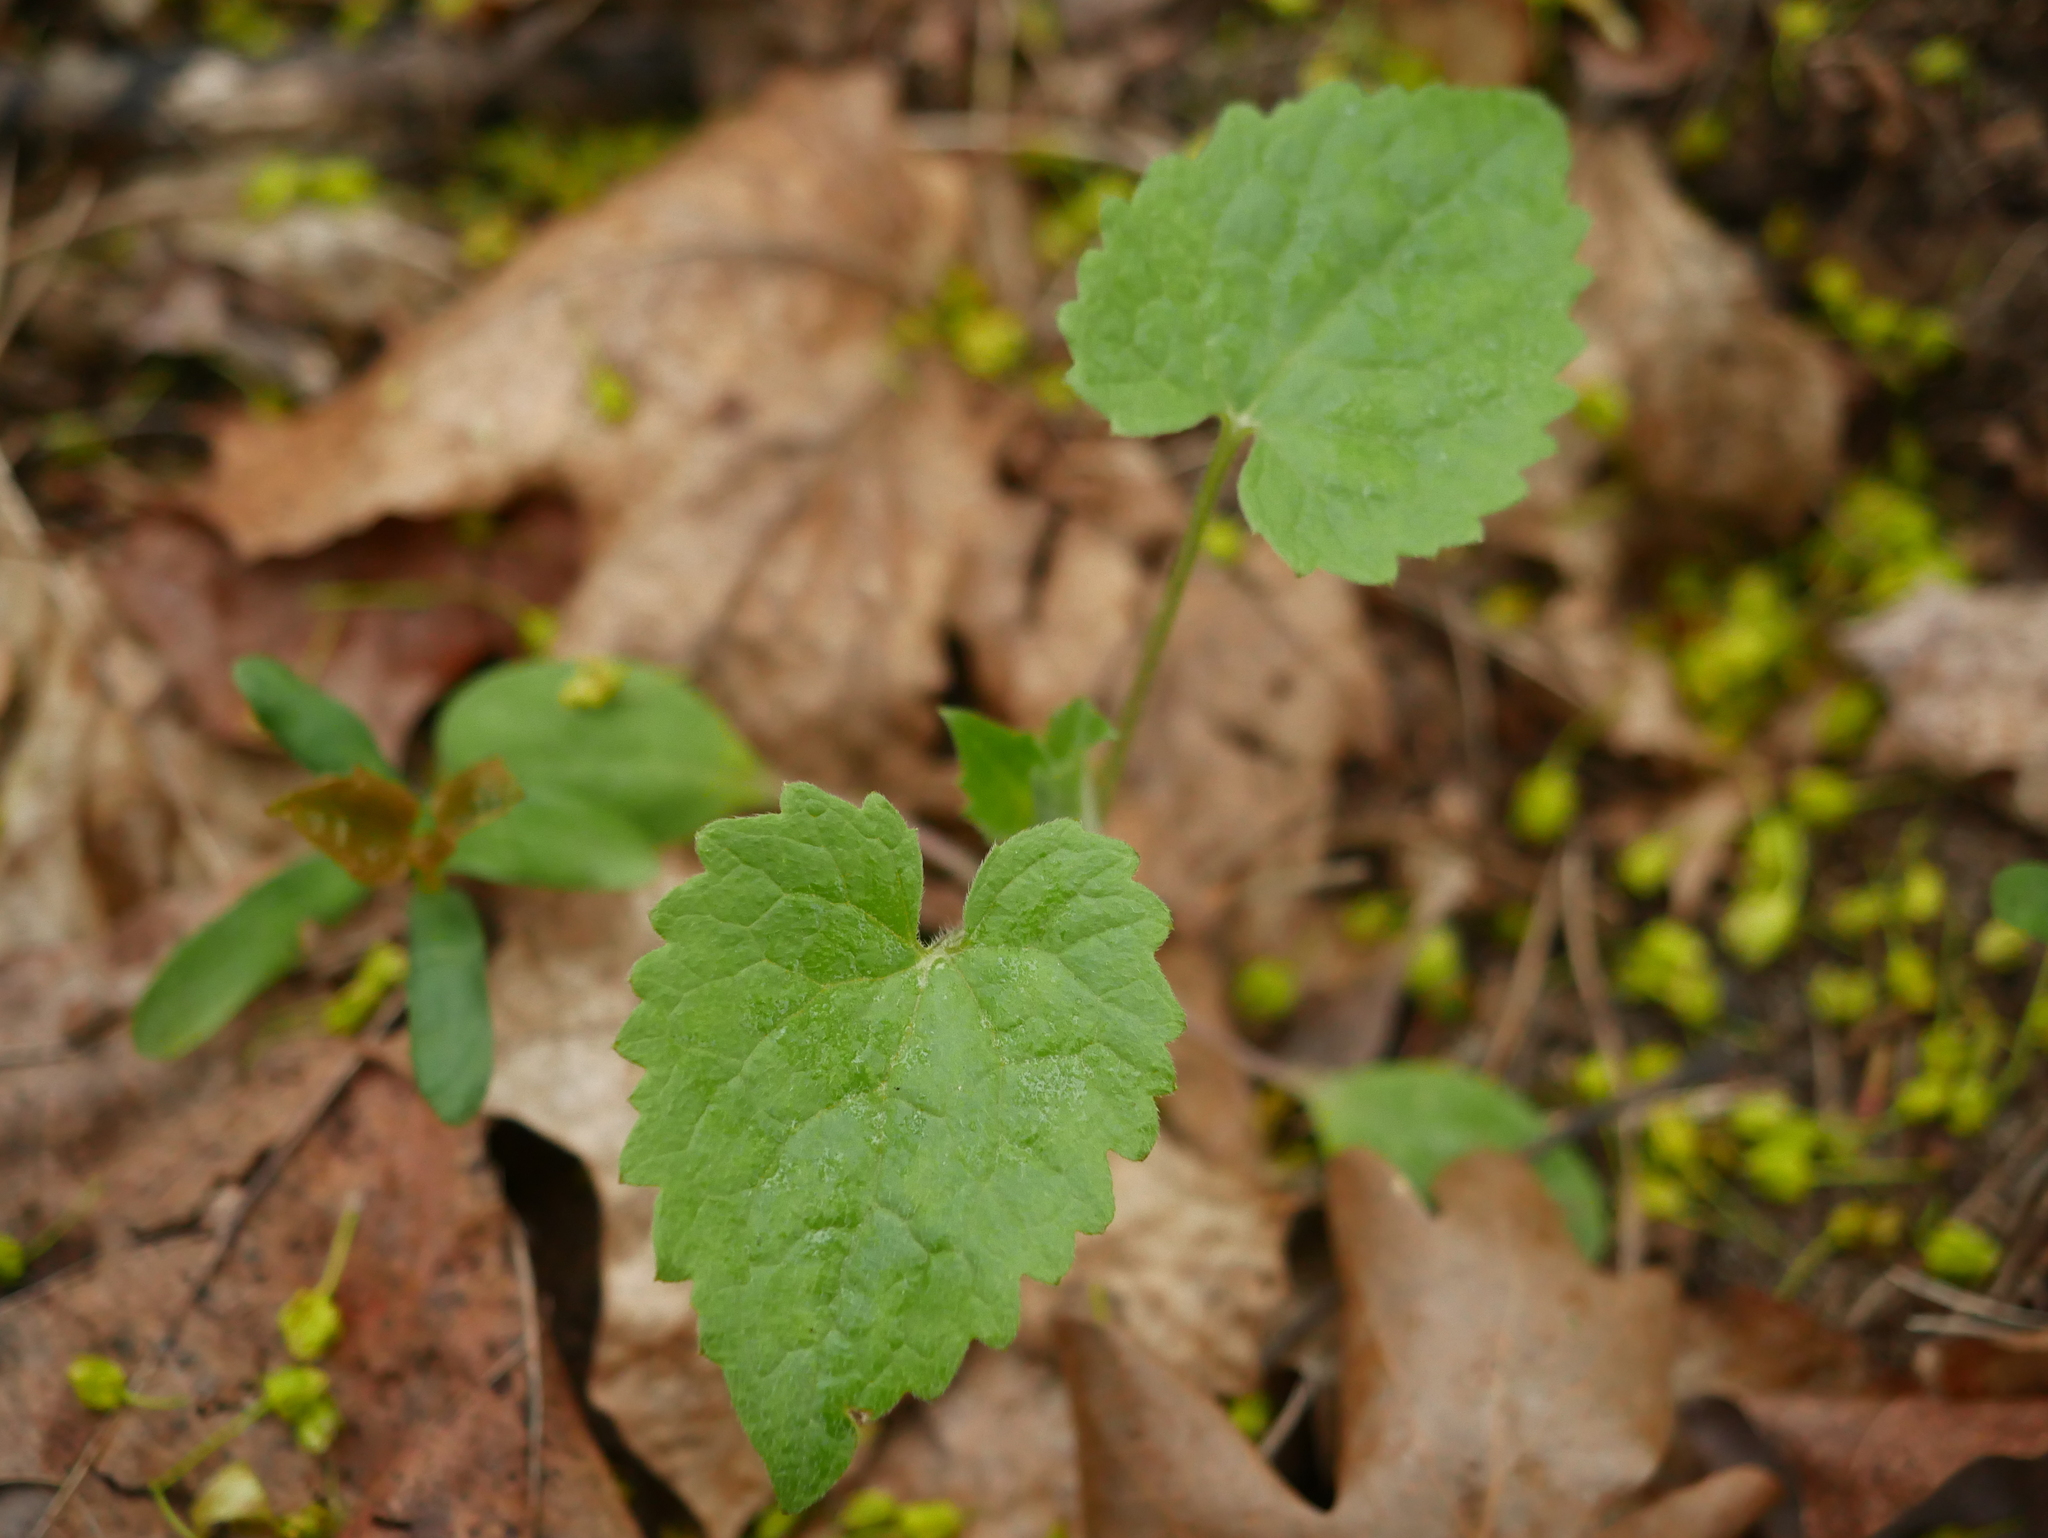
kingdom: Plantae
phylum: Tracheophyta
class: Magnoliopsida
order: Brassicales
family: Brassicaceae
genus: Lunaria
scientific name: Lunaria annua
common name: Honesty
